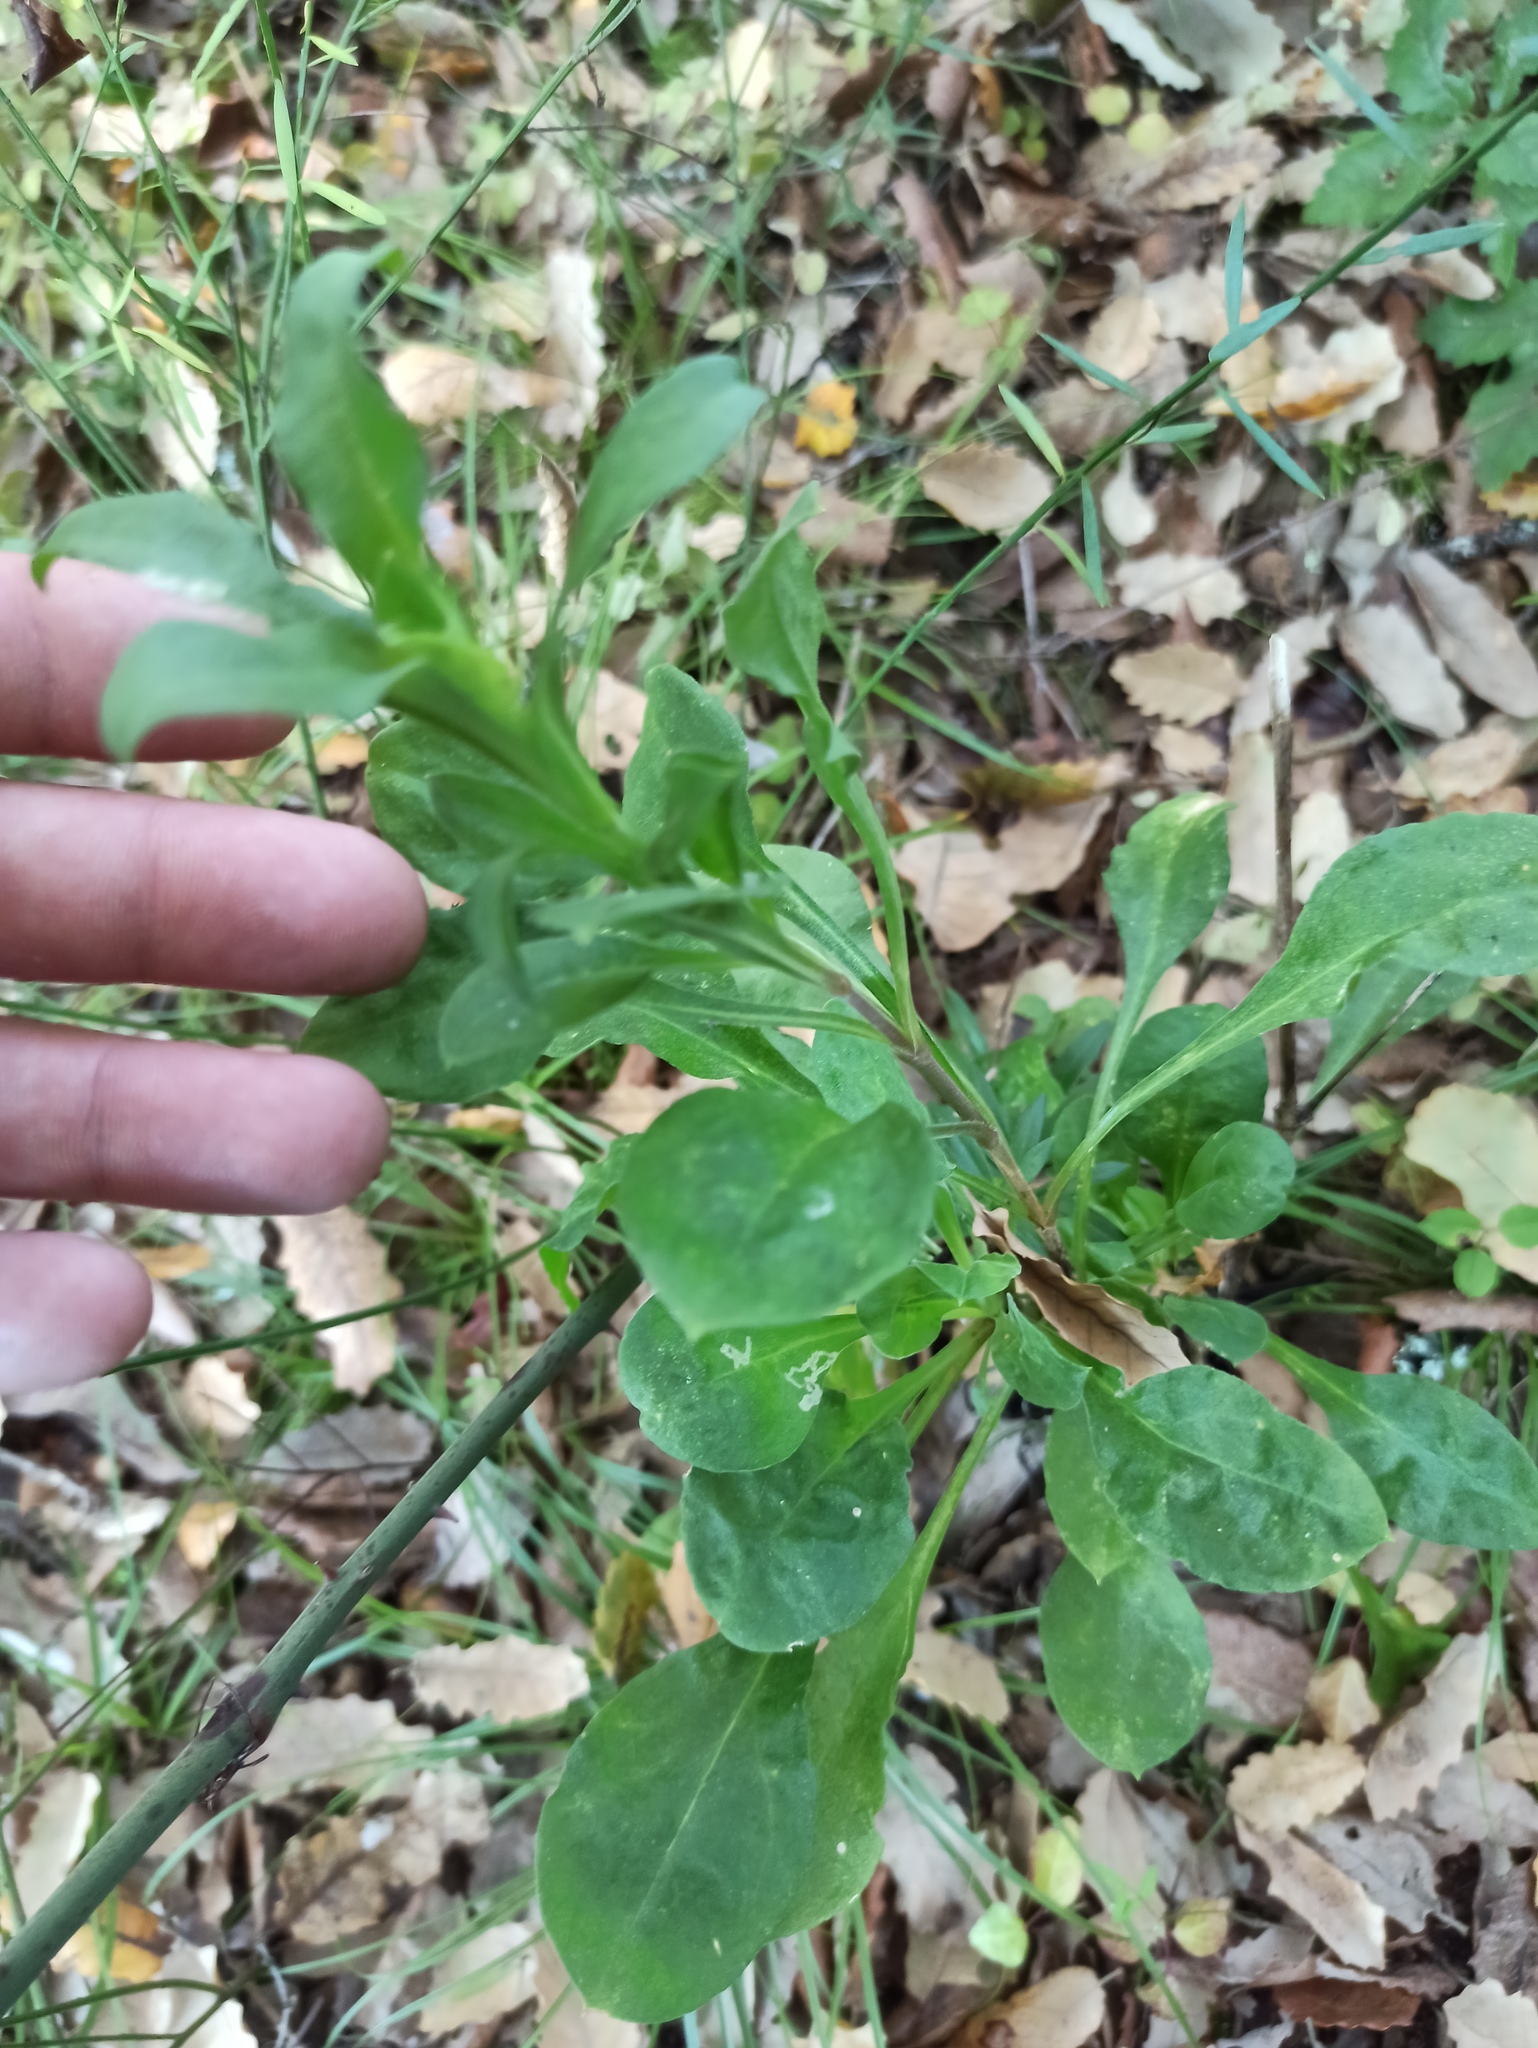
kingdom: Plantae
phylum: Tracheophyta
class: Magnoliopsida
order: Asterales
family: Asteraceae
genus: Coleostephus
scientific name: Coleostephus myconis
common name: Mediterranean marigold
